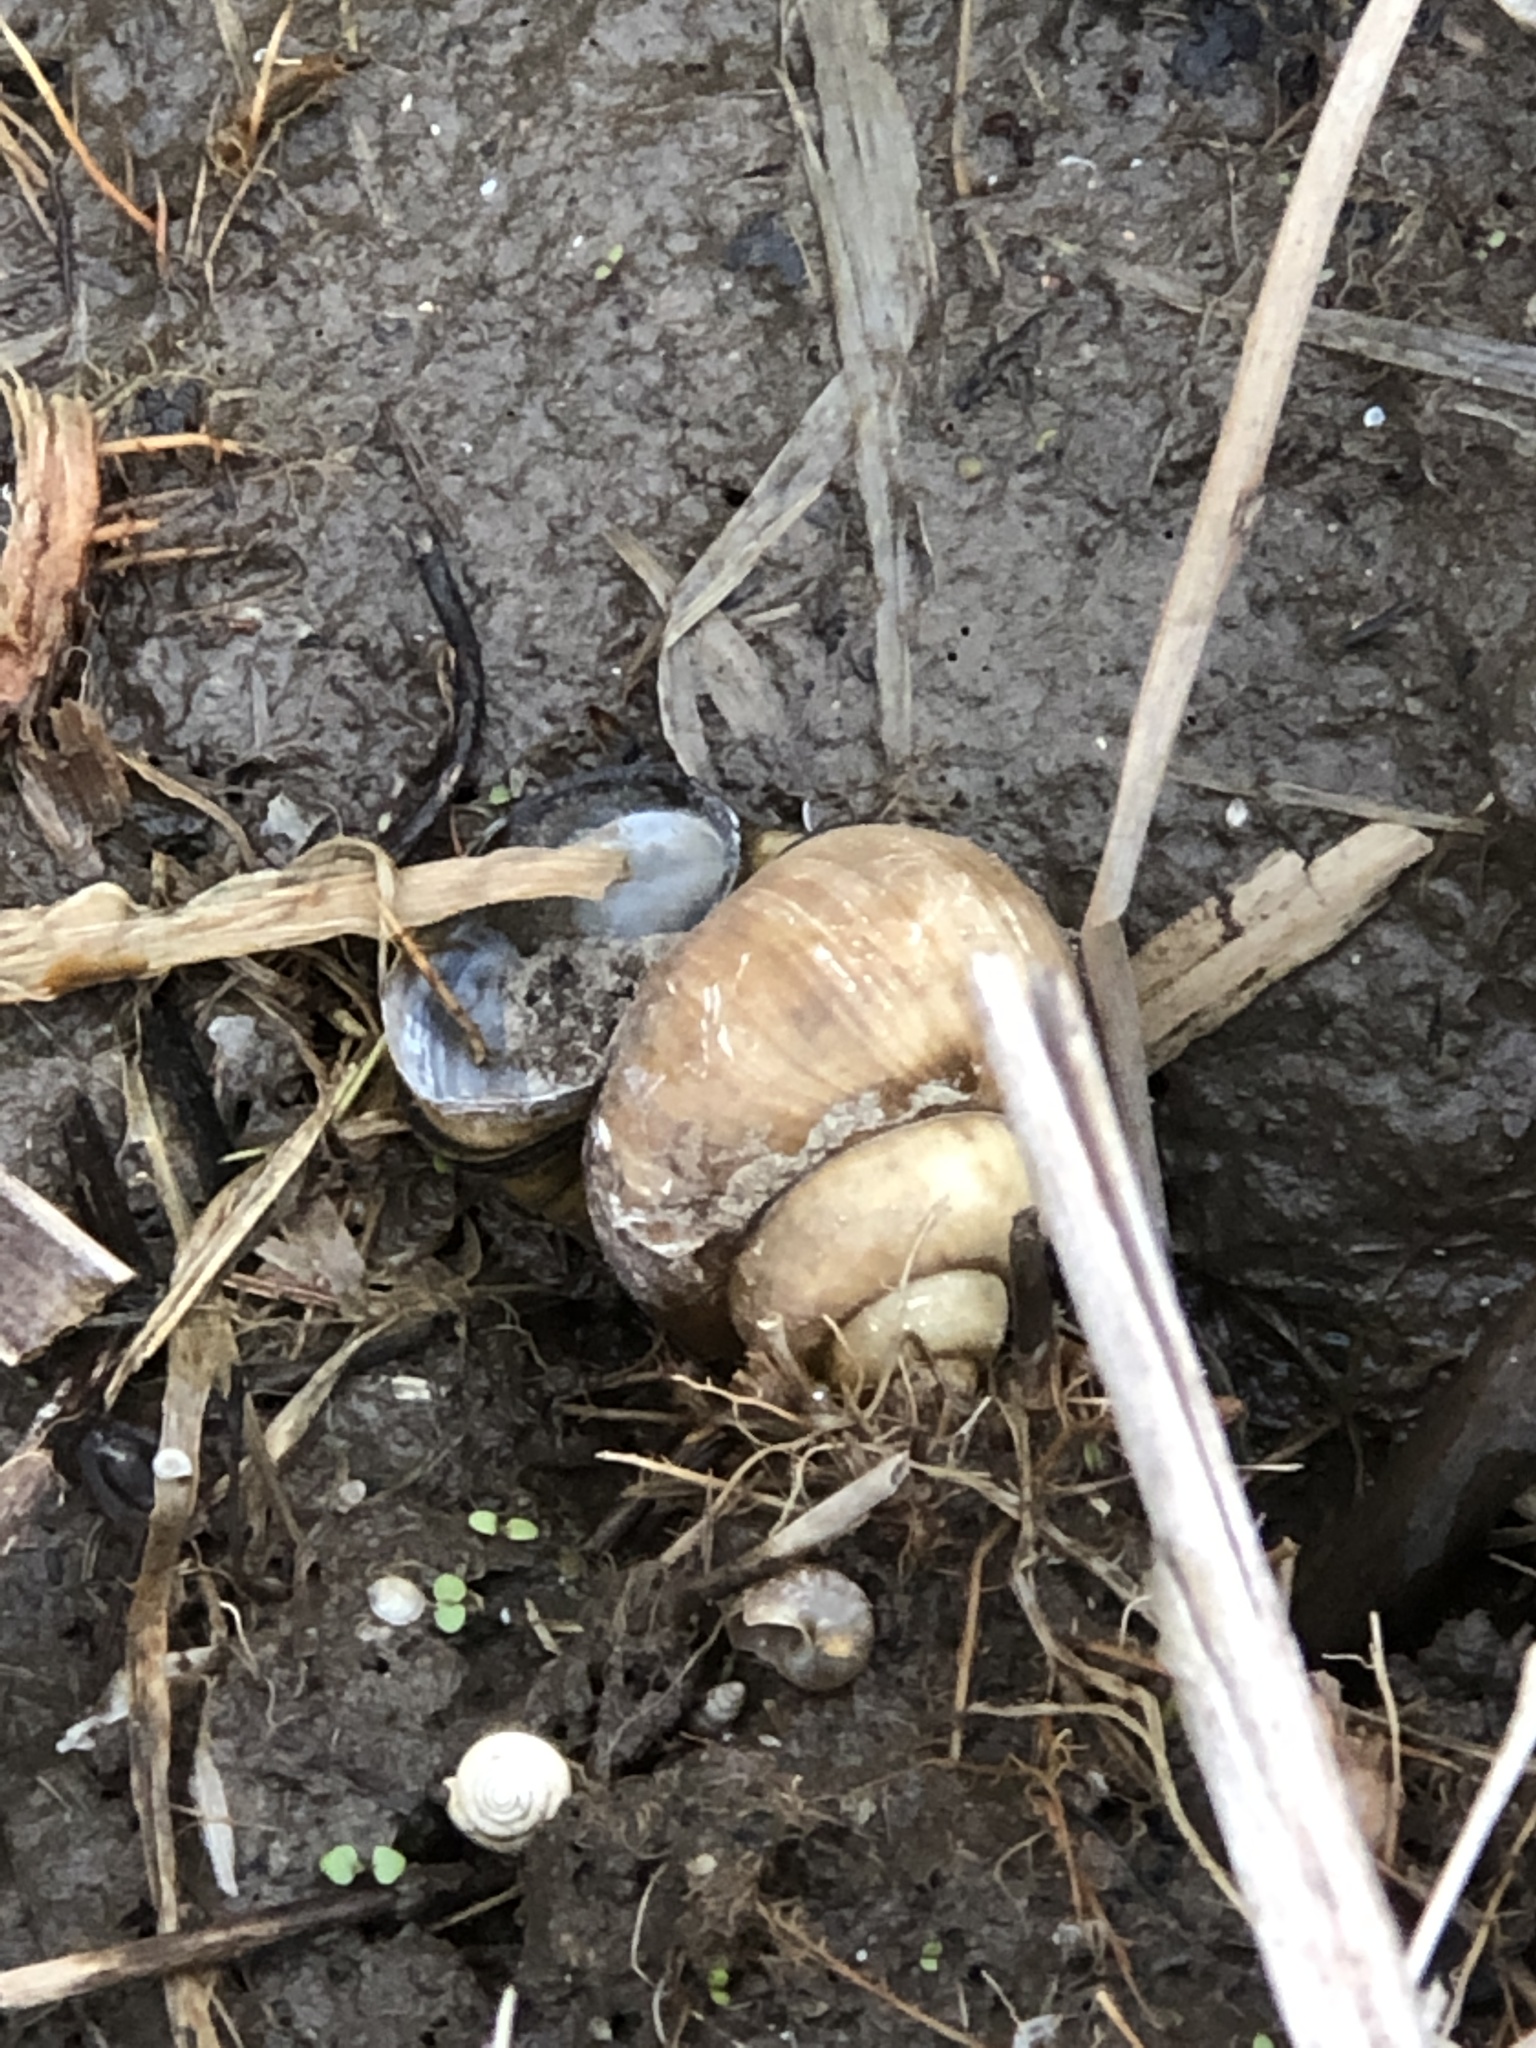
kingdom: Animalia
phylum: Mollusca
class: Gastropoda
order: Architaenioglossa
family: Viviparidae
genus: Cipangopaludina
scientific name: Cipangopaludina chinensis
